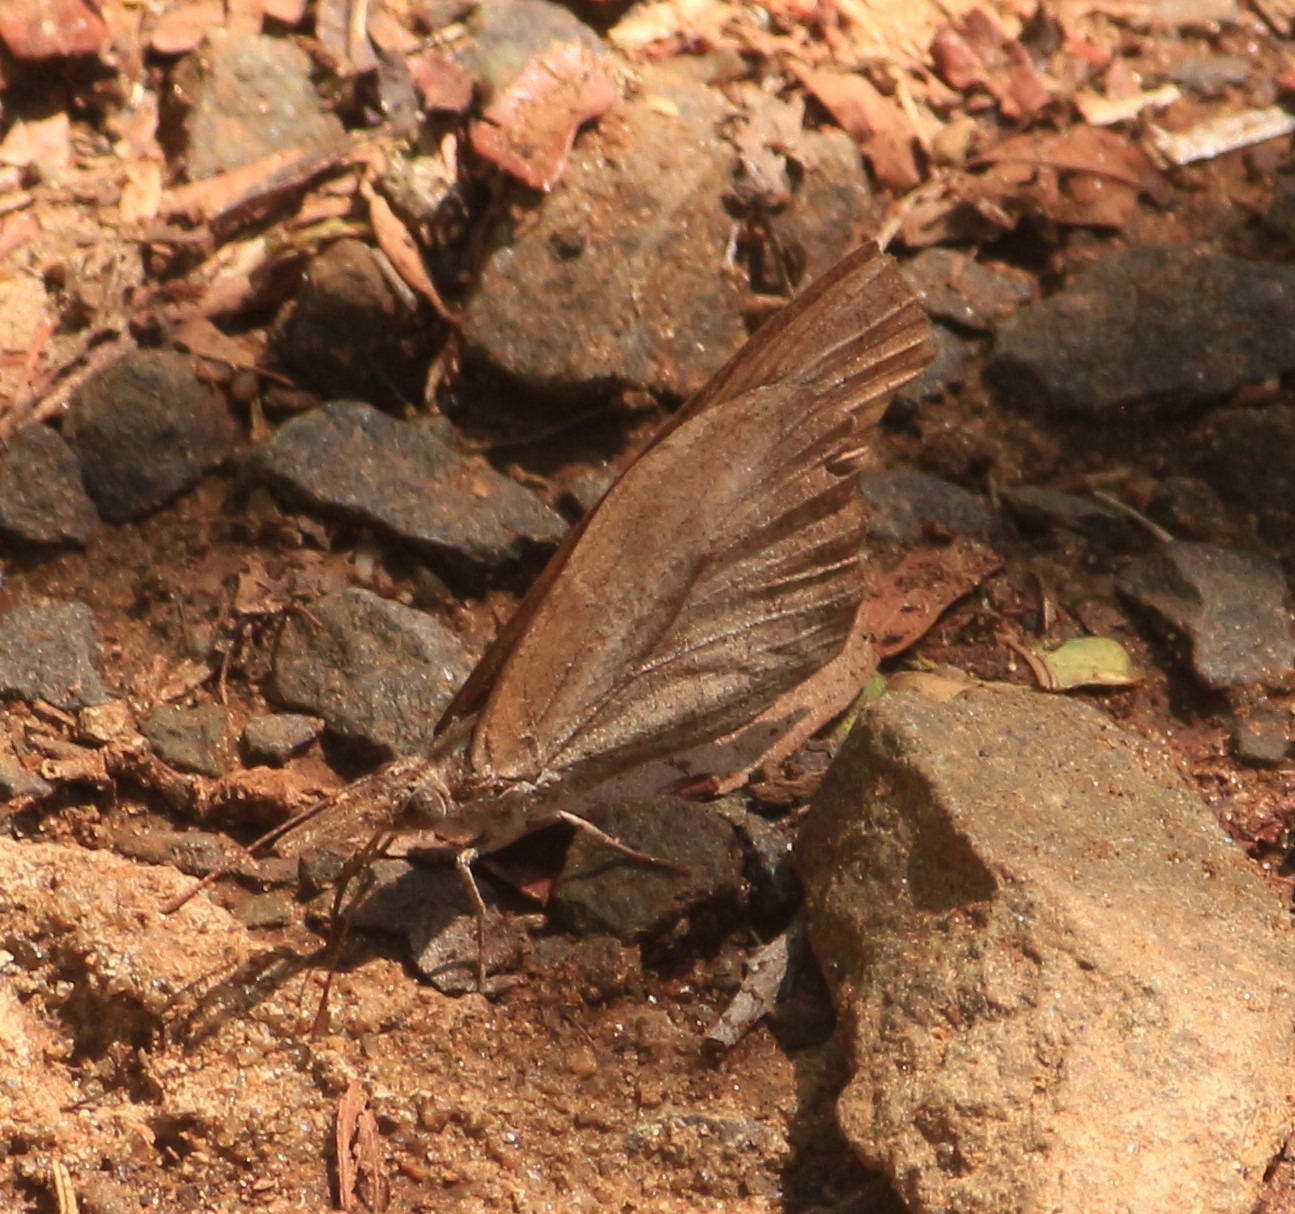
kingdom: Animalia
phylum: Arthropoda
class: Insecta
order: Lepidoptera
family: Nymphalidae
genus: Libytheana
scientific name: Libytheana carinenta
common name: American snout
